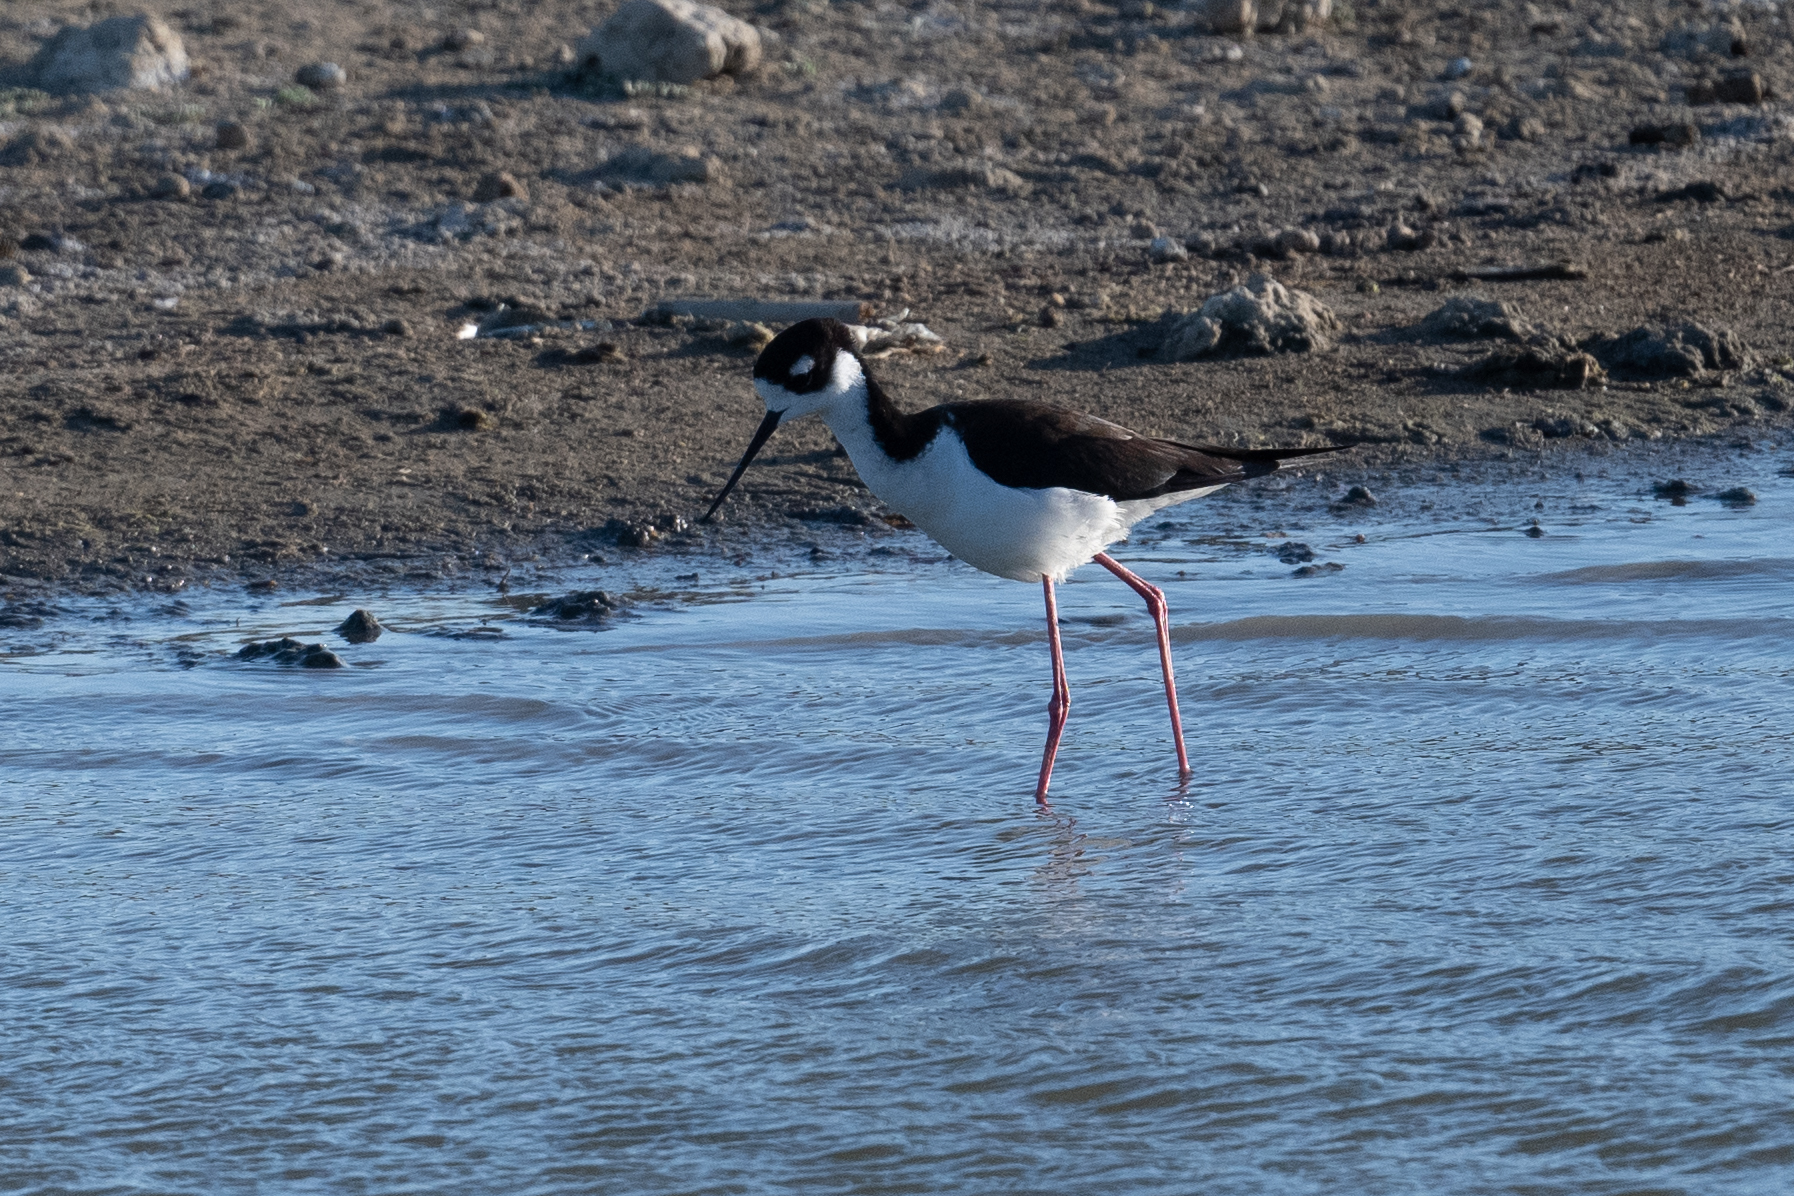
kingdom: Animalia
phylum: Chordata
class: Aves
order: Charadriiformes
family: Recurvirostridae
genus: Himantopus
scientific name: Himantopus mexicanus
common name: Black-necked stilt
